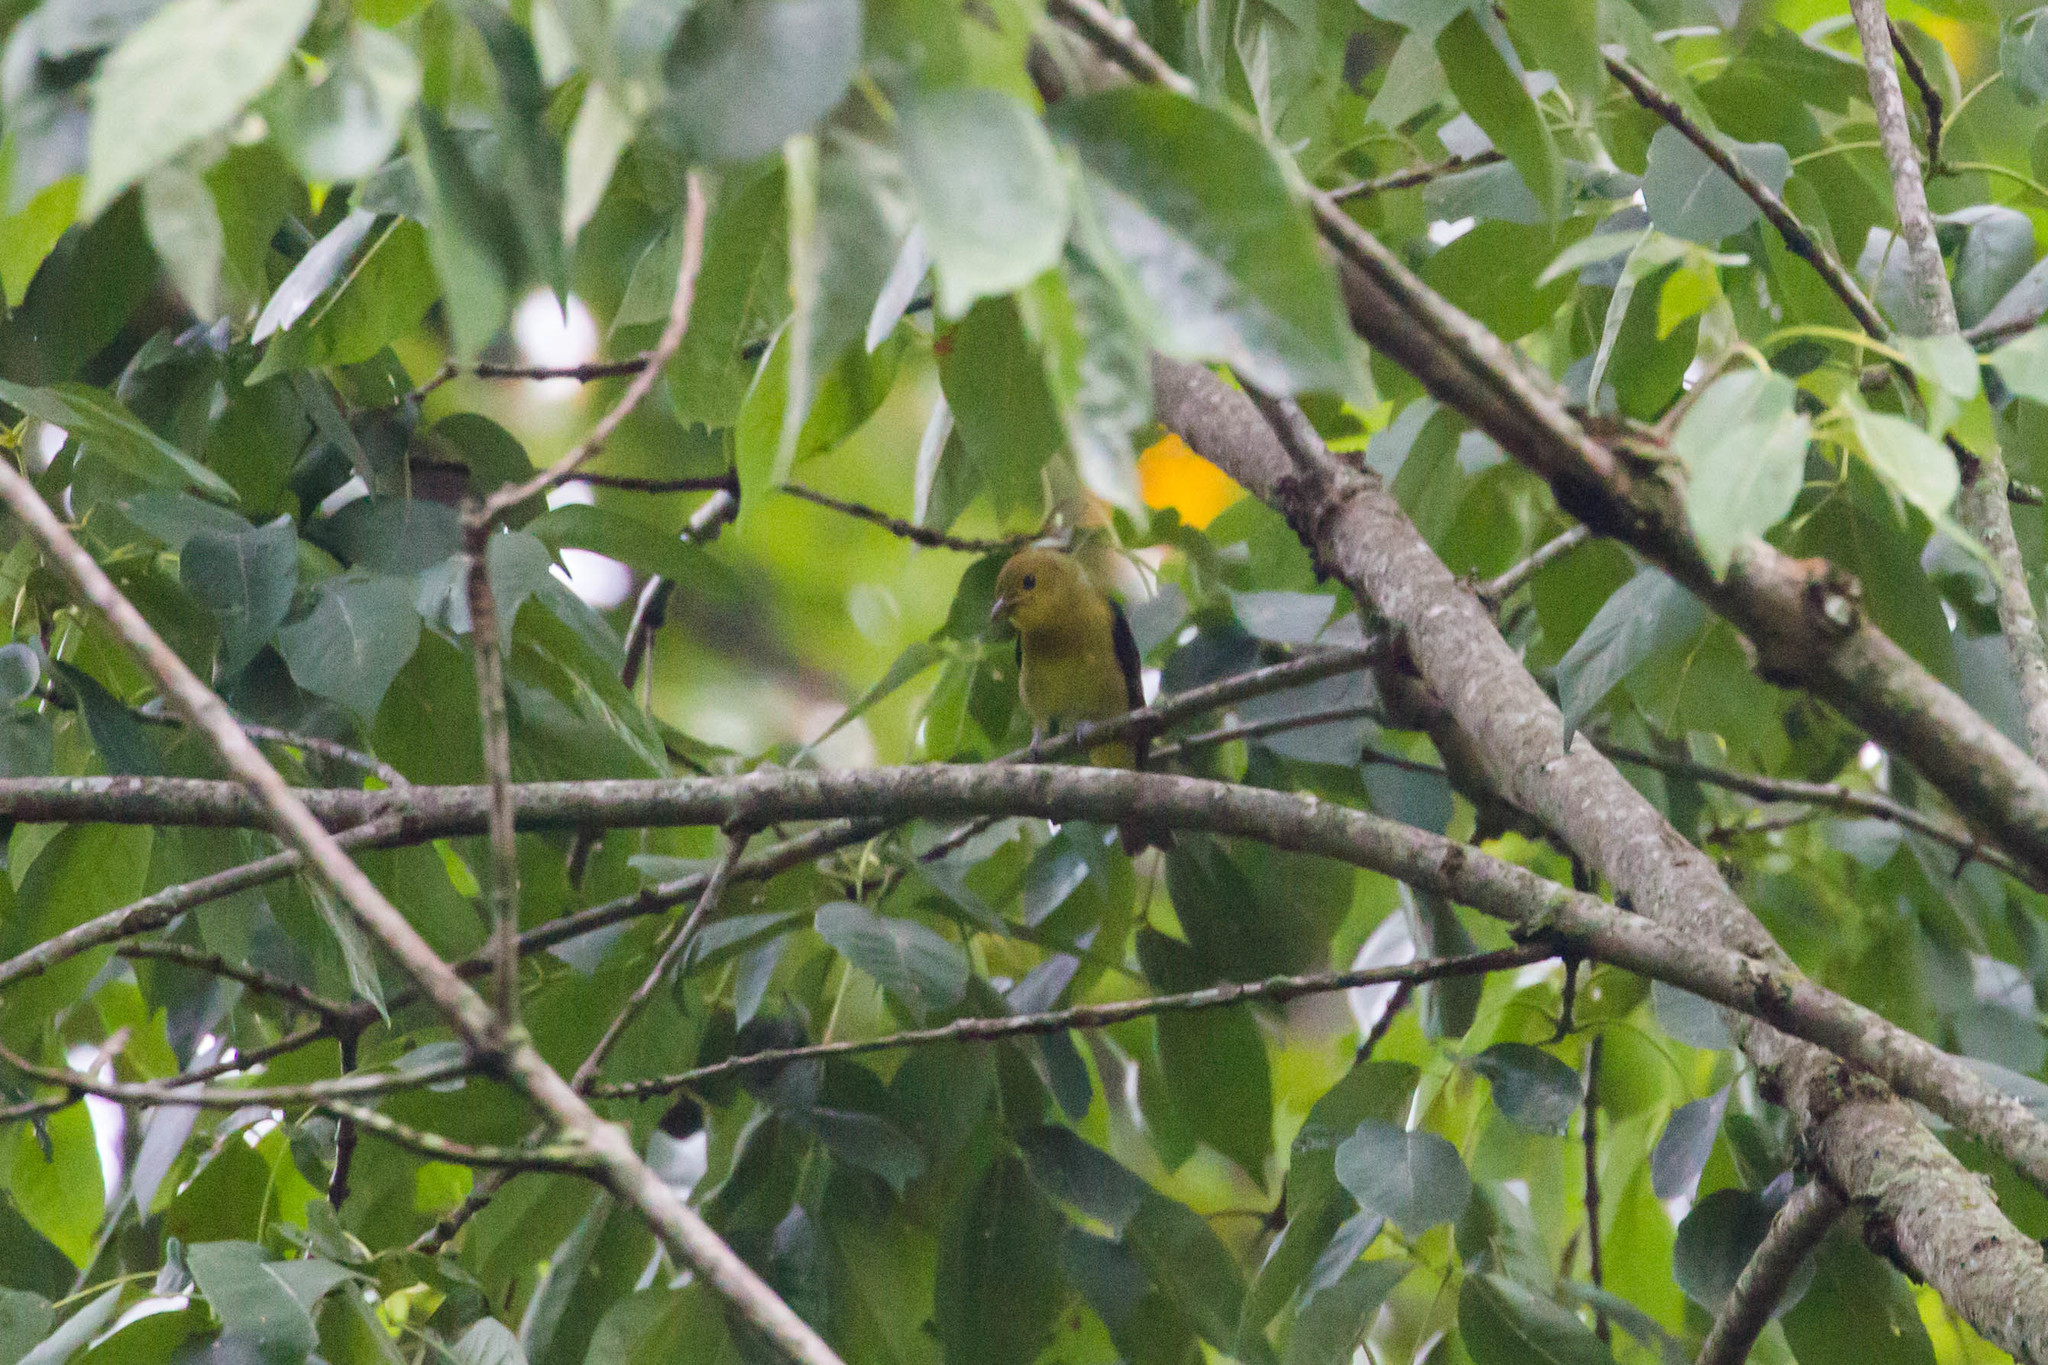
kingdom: Animalia
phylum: Chordata
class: Aves
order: Passeriformes
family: Cardinalidae
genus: Piranga
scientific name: Piranga olivacea
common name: Scarlet tanager
